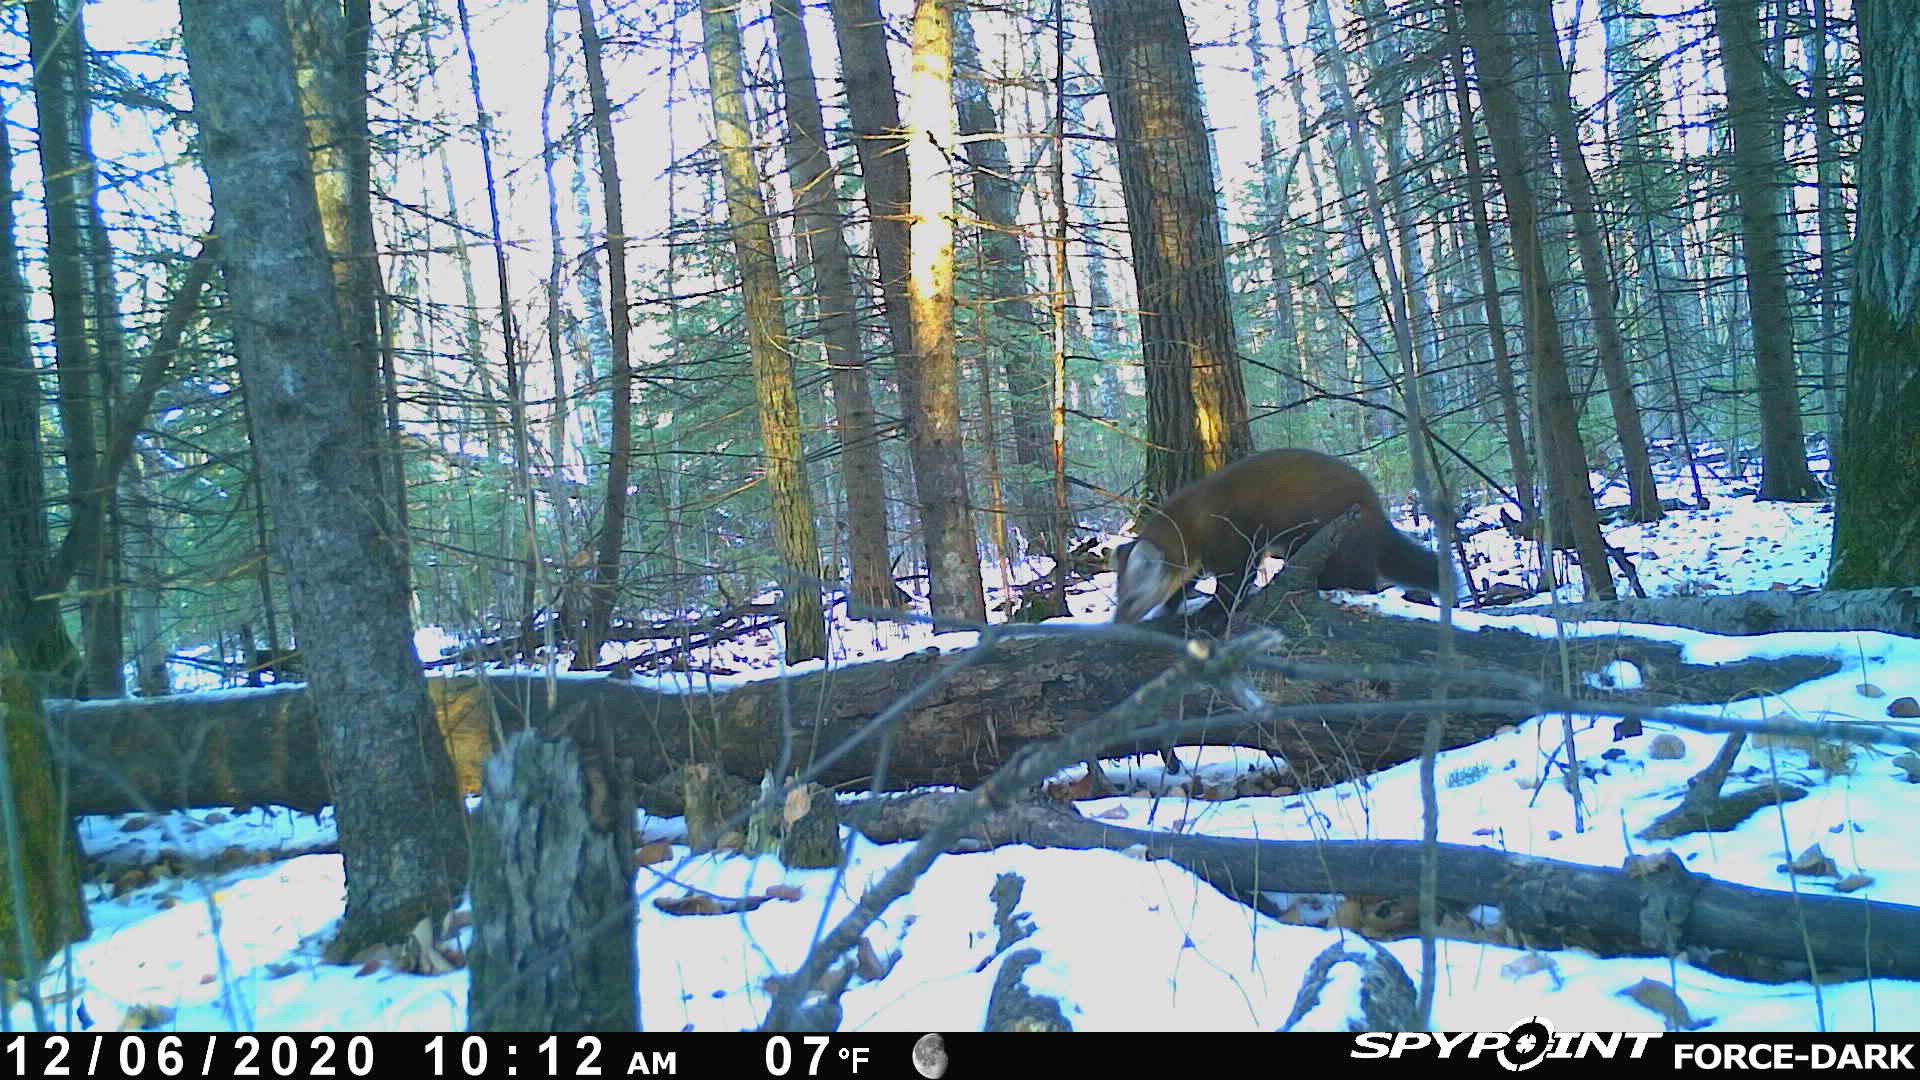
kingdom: Animalia
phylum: Chordata
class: Mammalia
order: Carnivora
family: Mustelidae
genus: Martes
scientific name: Martes americana
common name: American marten
